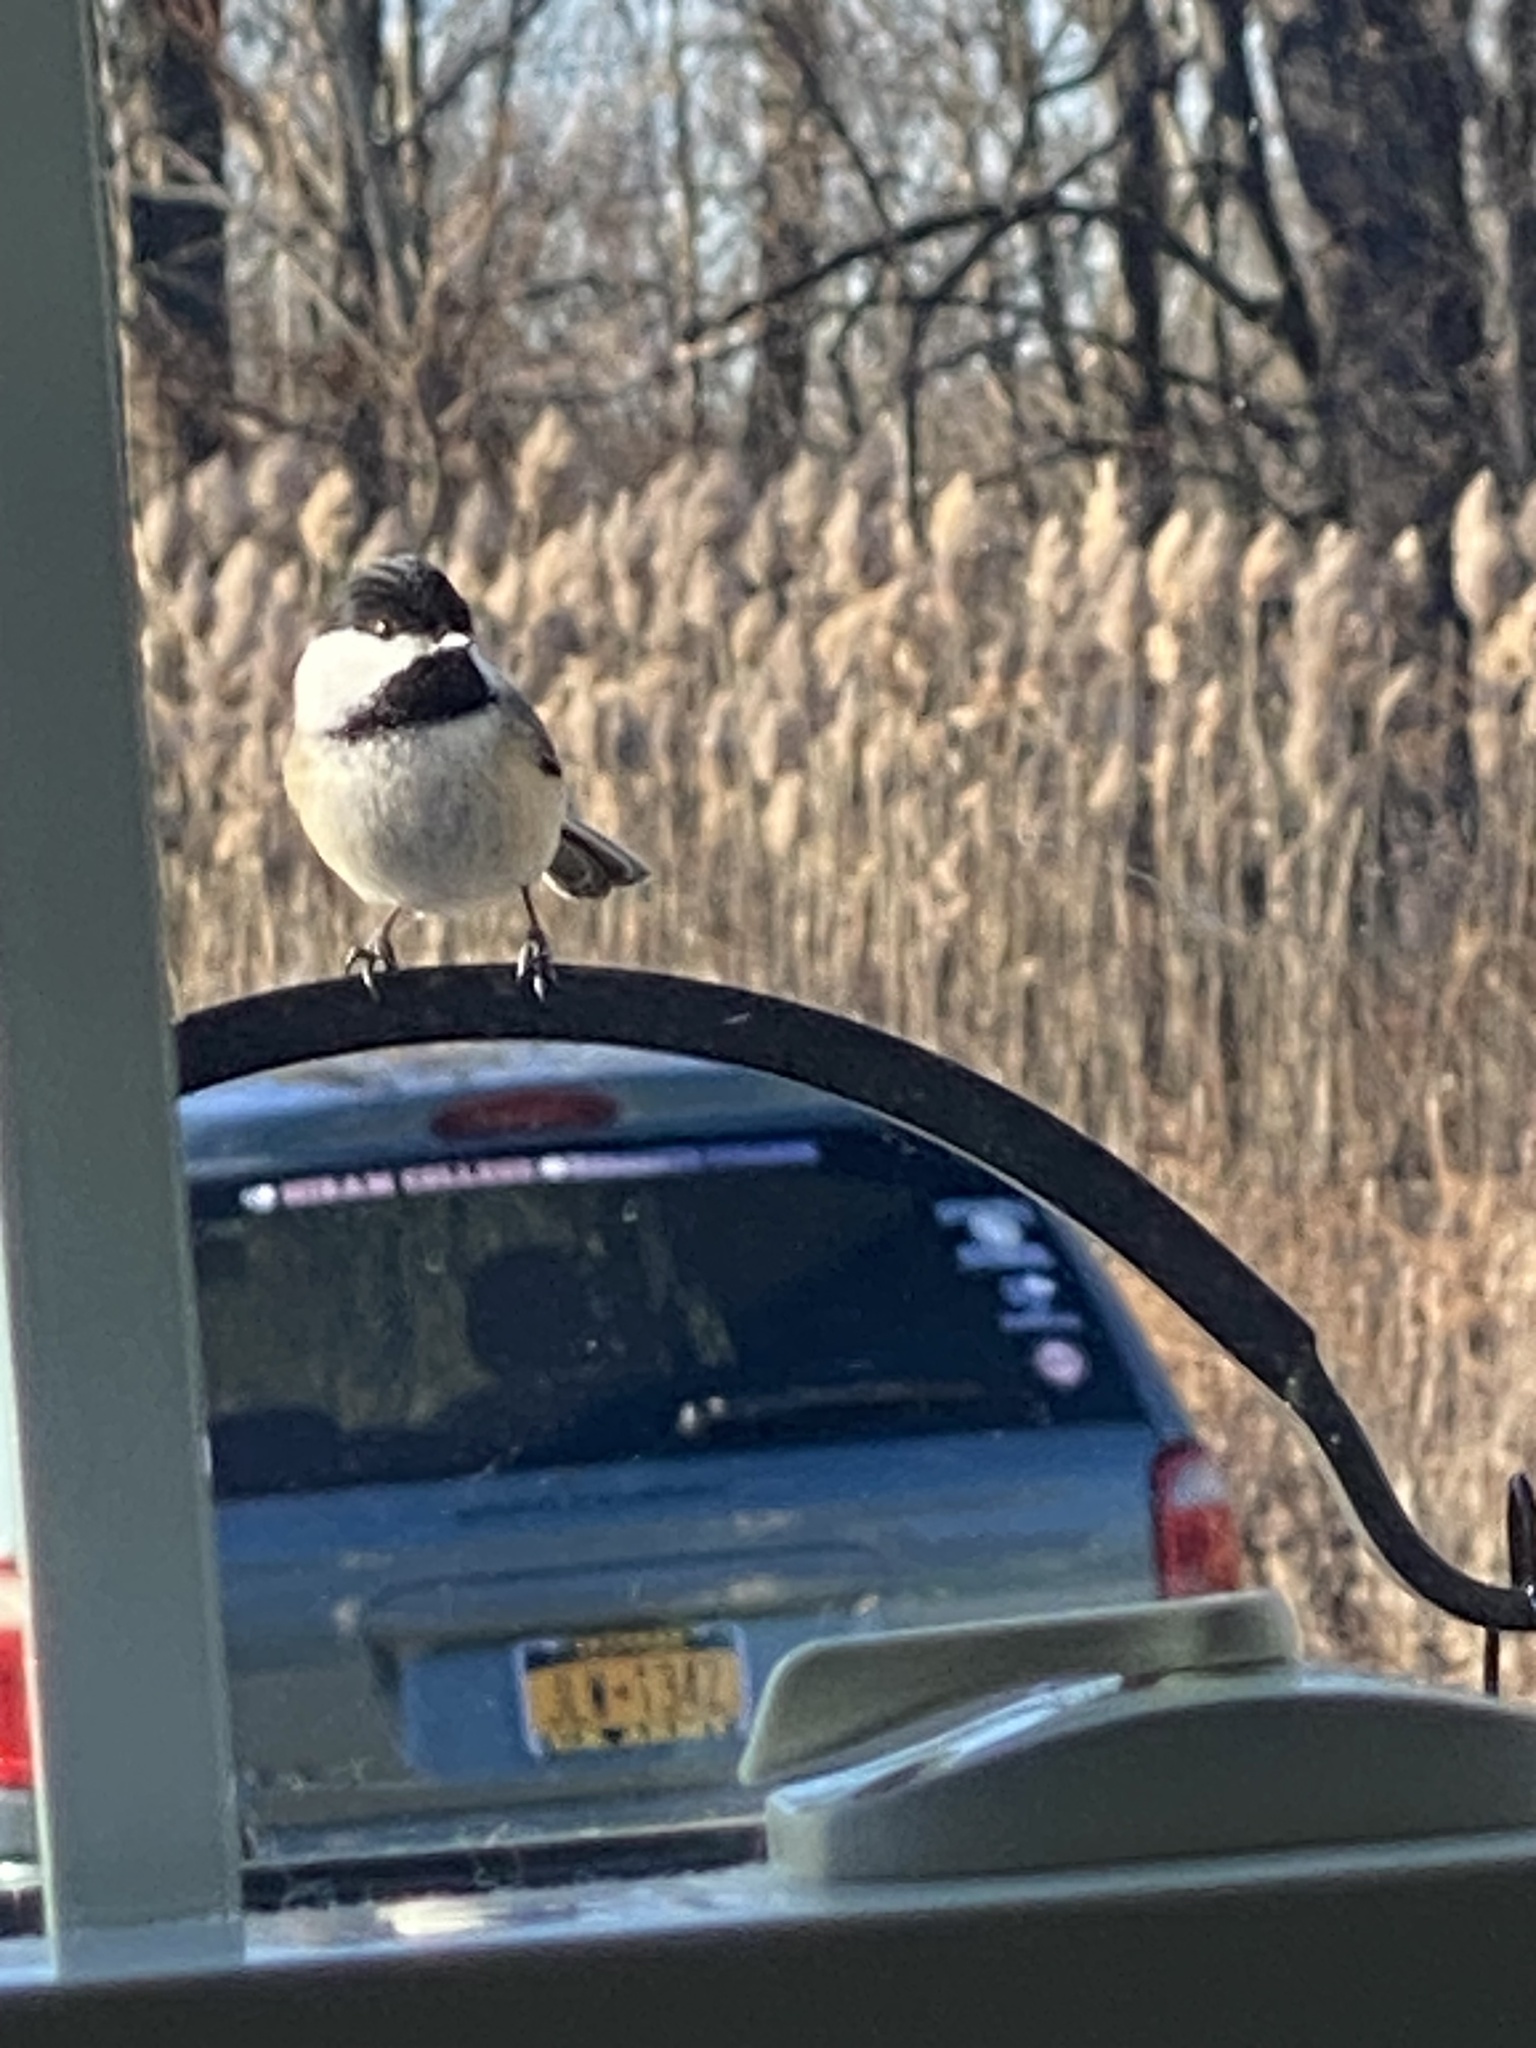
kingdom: Animalia
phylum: Chordata
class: Aves
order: Passeriformes
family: Paridae
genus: Poecile
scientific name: Poecile atricapillus
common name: Black-capped chickadee
